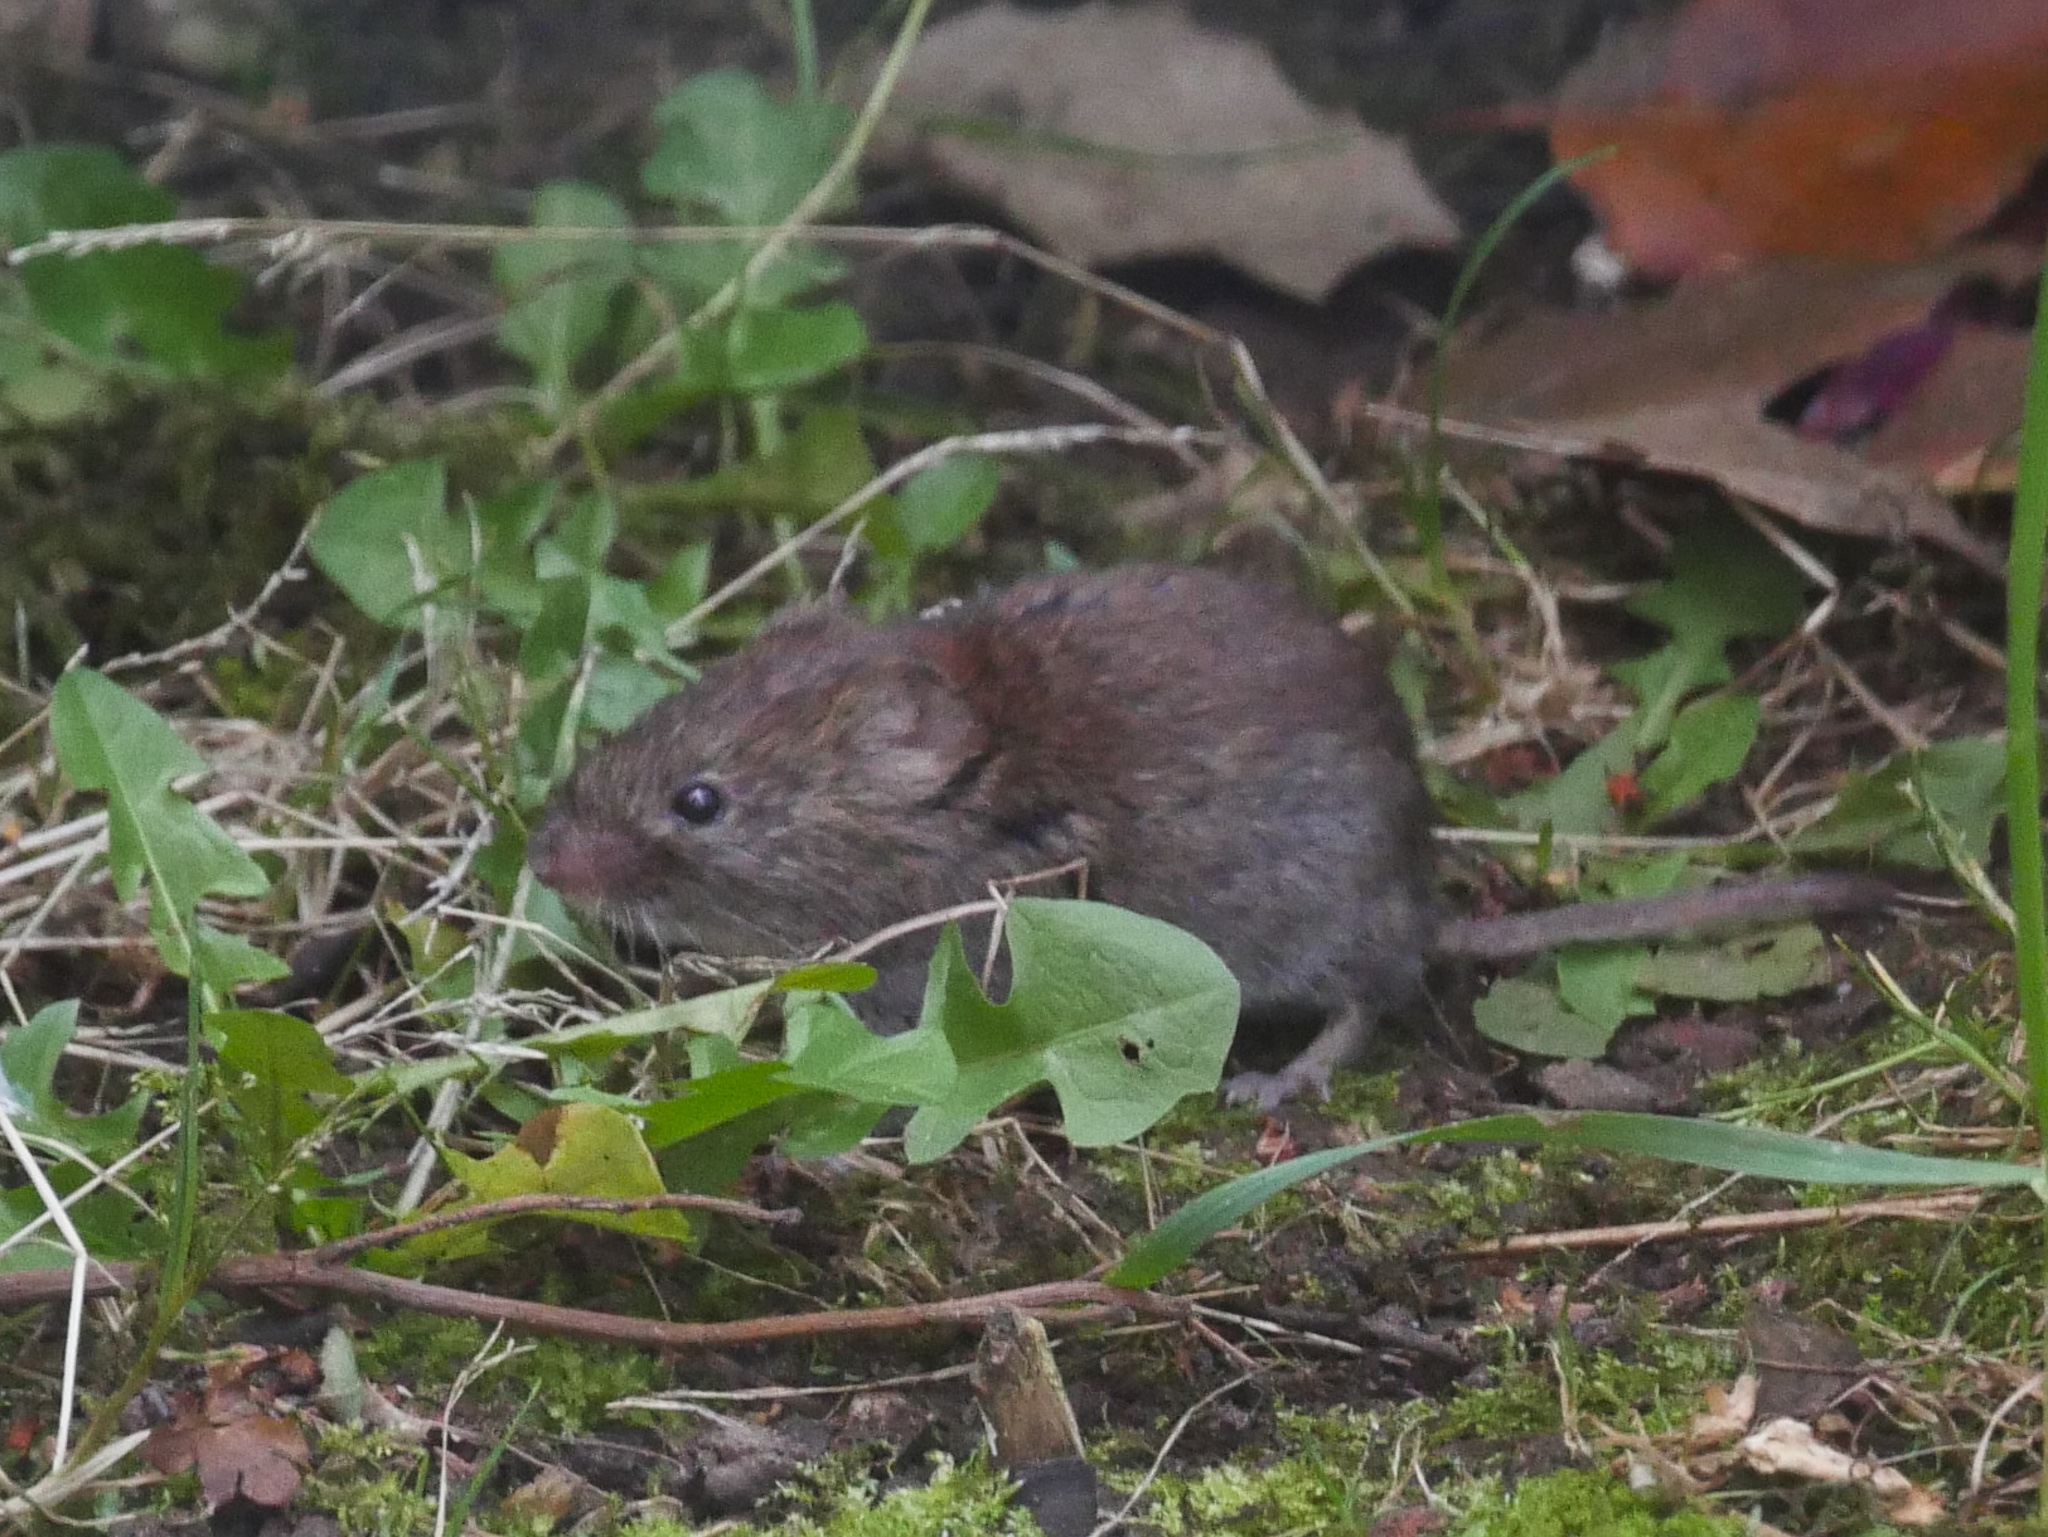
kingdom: Animalia
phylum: Chordata
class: Mammalia
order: Rodentia
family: Cricetidae
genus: Myodes
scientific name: Myodes glareolus
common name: Bank vole
